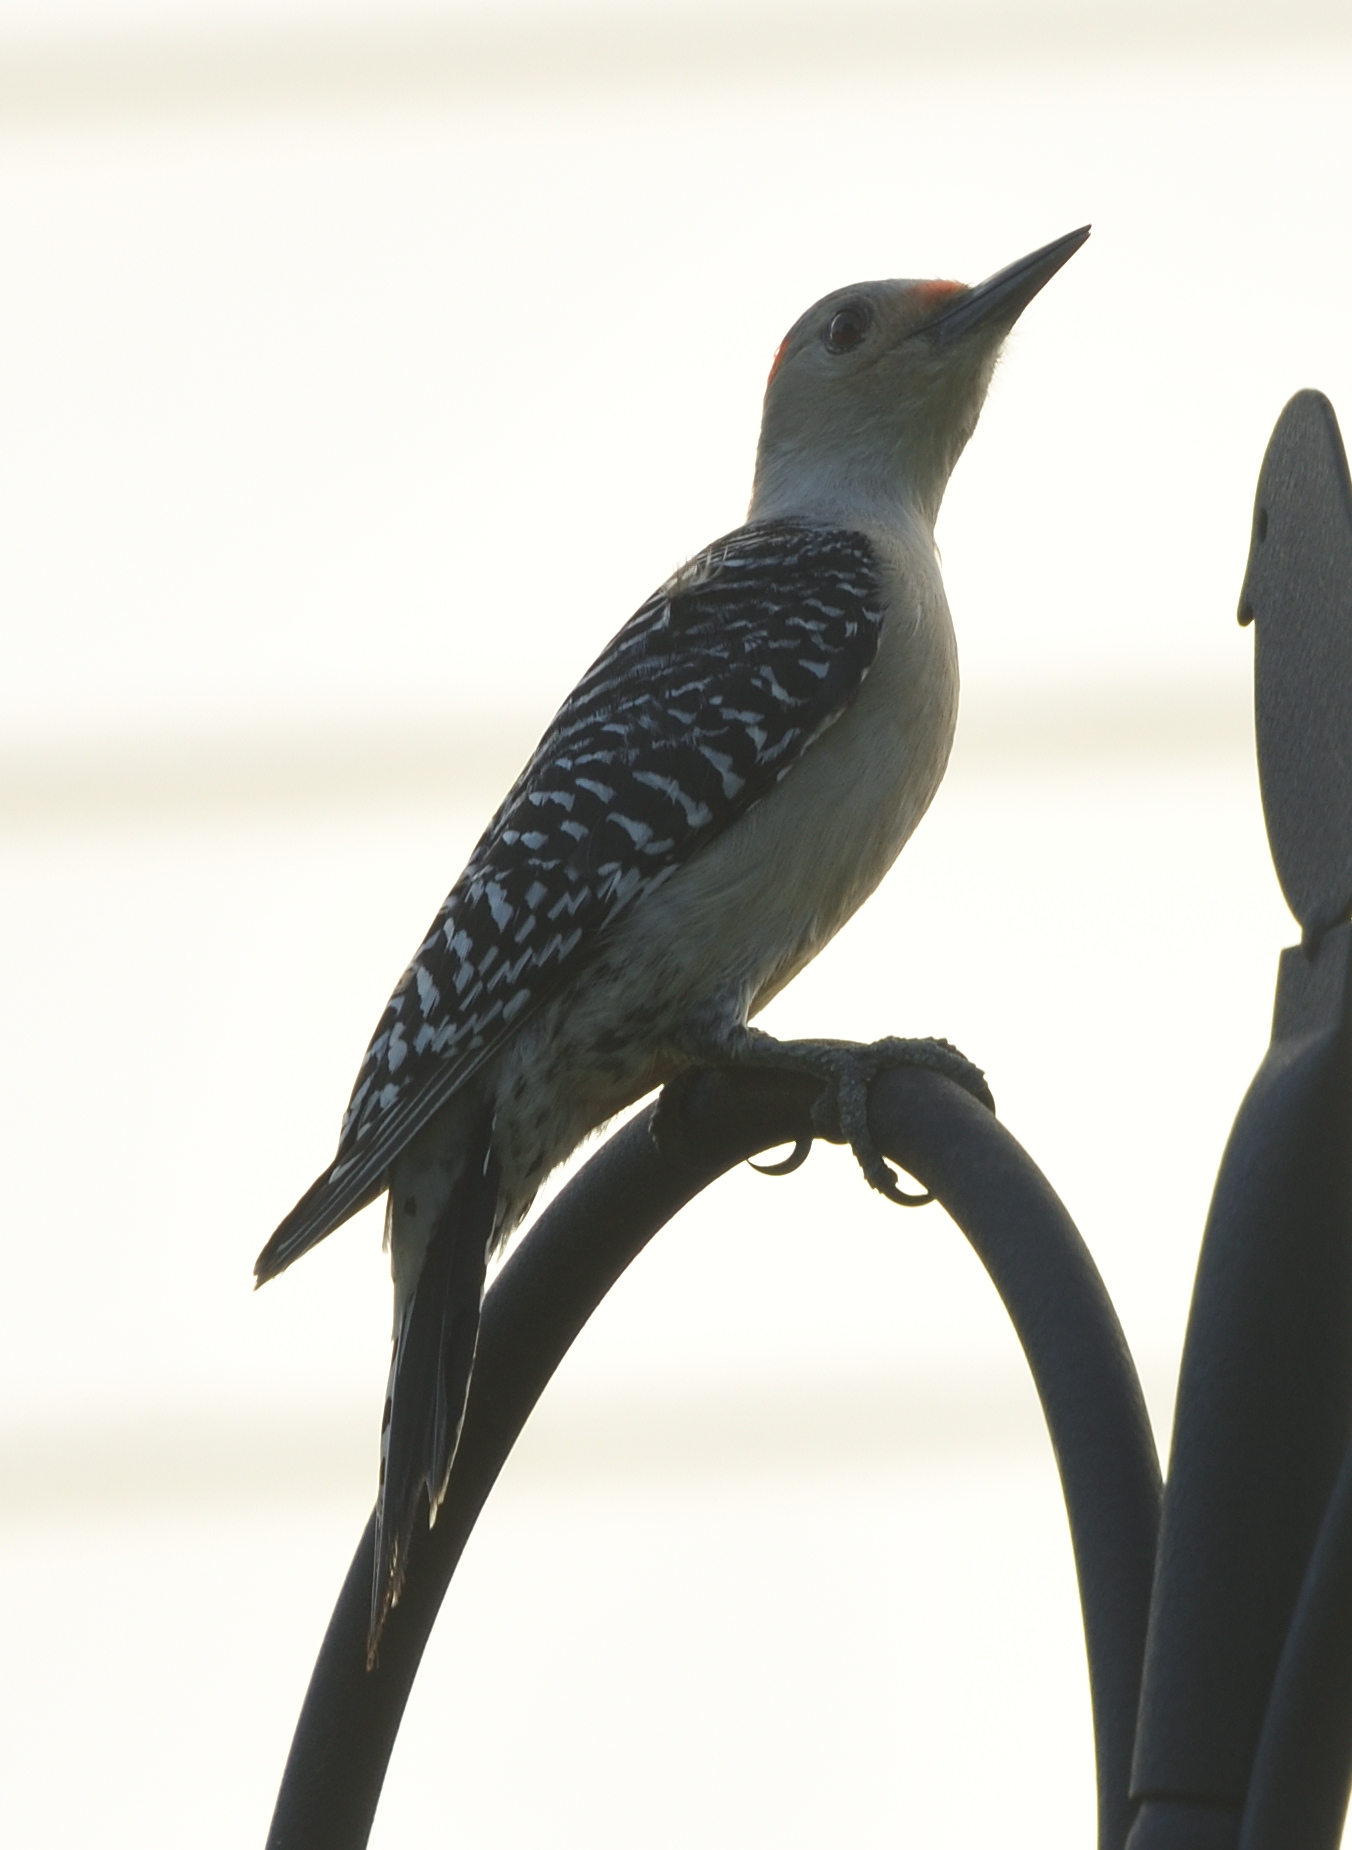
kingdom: Animalia
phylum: Chordata
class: Aves
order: Piciformes
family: Picidae
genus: Melanerpes
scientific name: Melanerpes carolinus
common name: Red-bellied woodpecker
